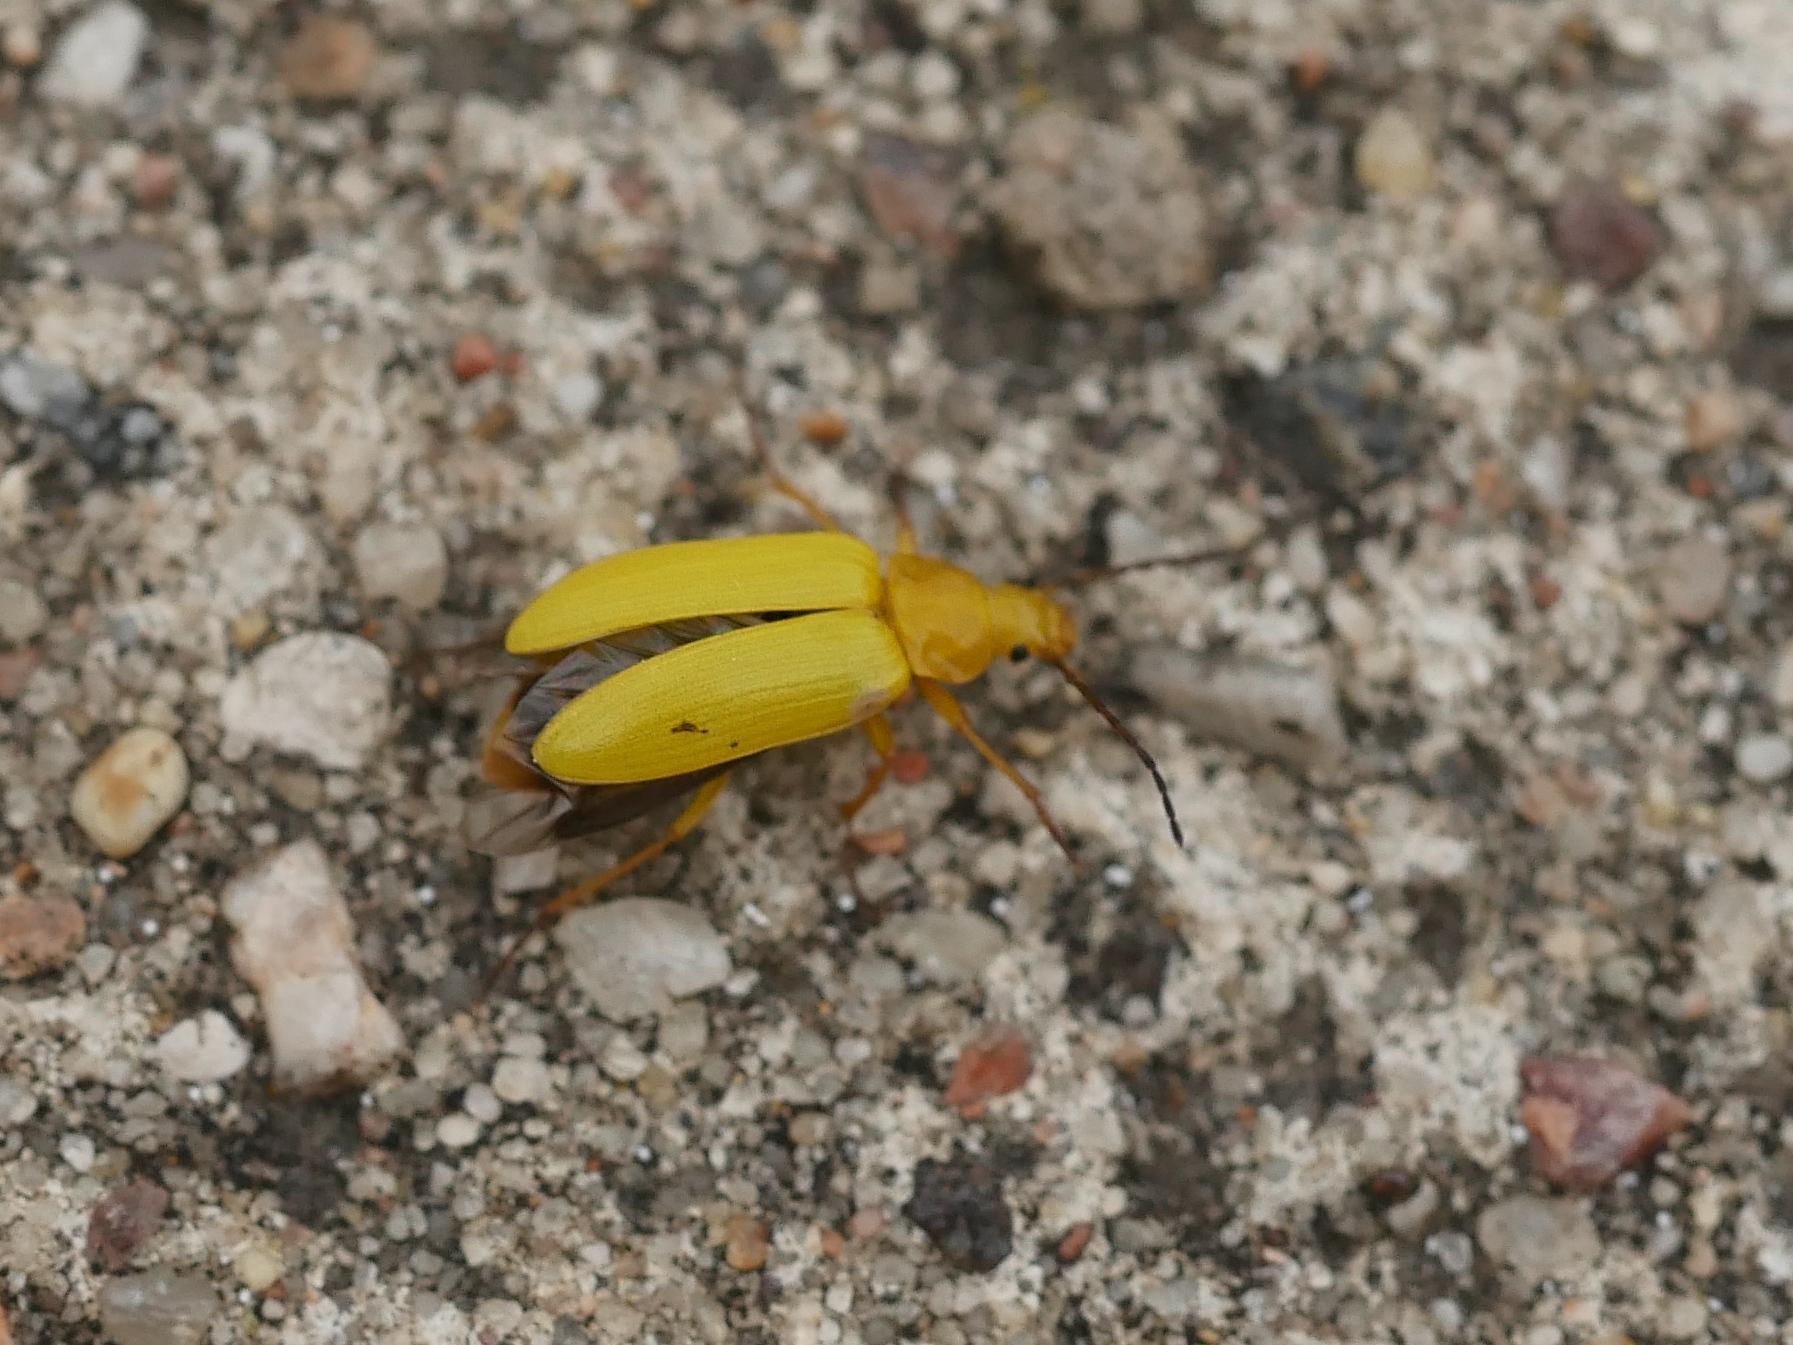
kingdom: Animalia
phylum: Arthropoda
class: Insecta
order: Coleoptera
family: Tenebrionidae
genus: Cteniopus
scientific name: Cteniopus sulphureus
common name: Sulphur beetle
